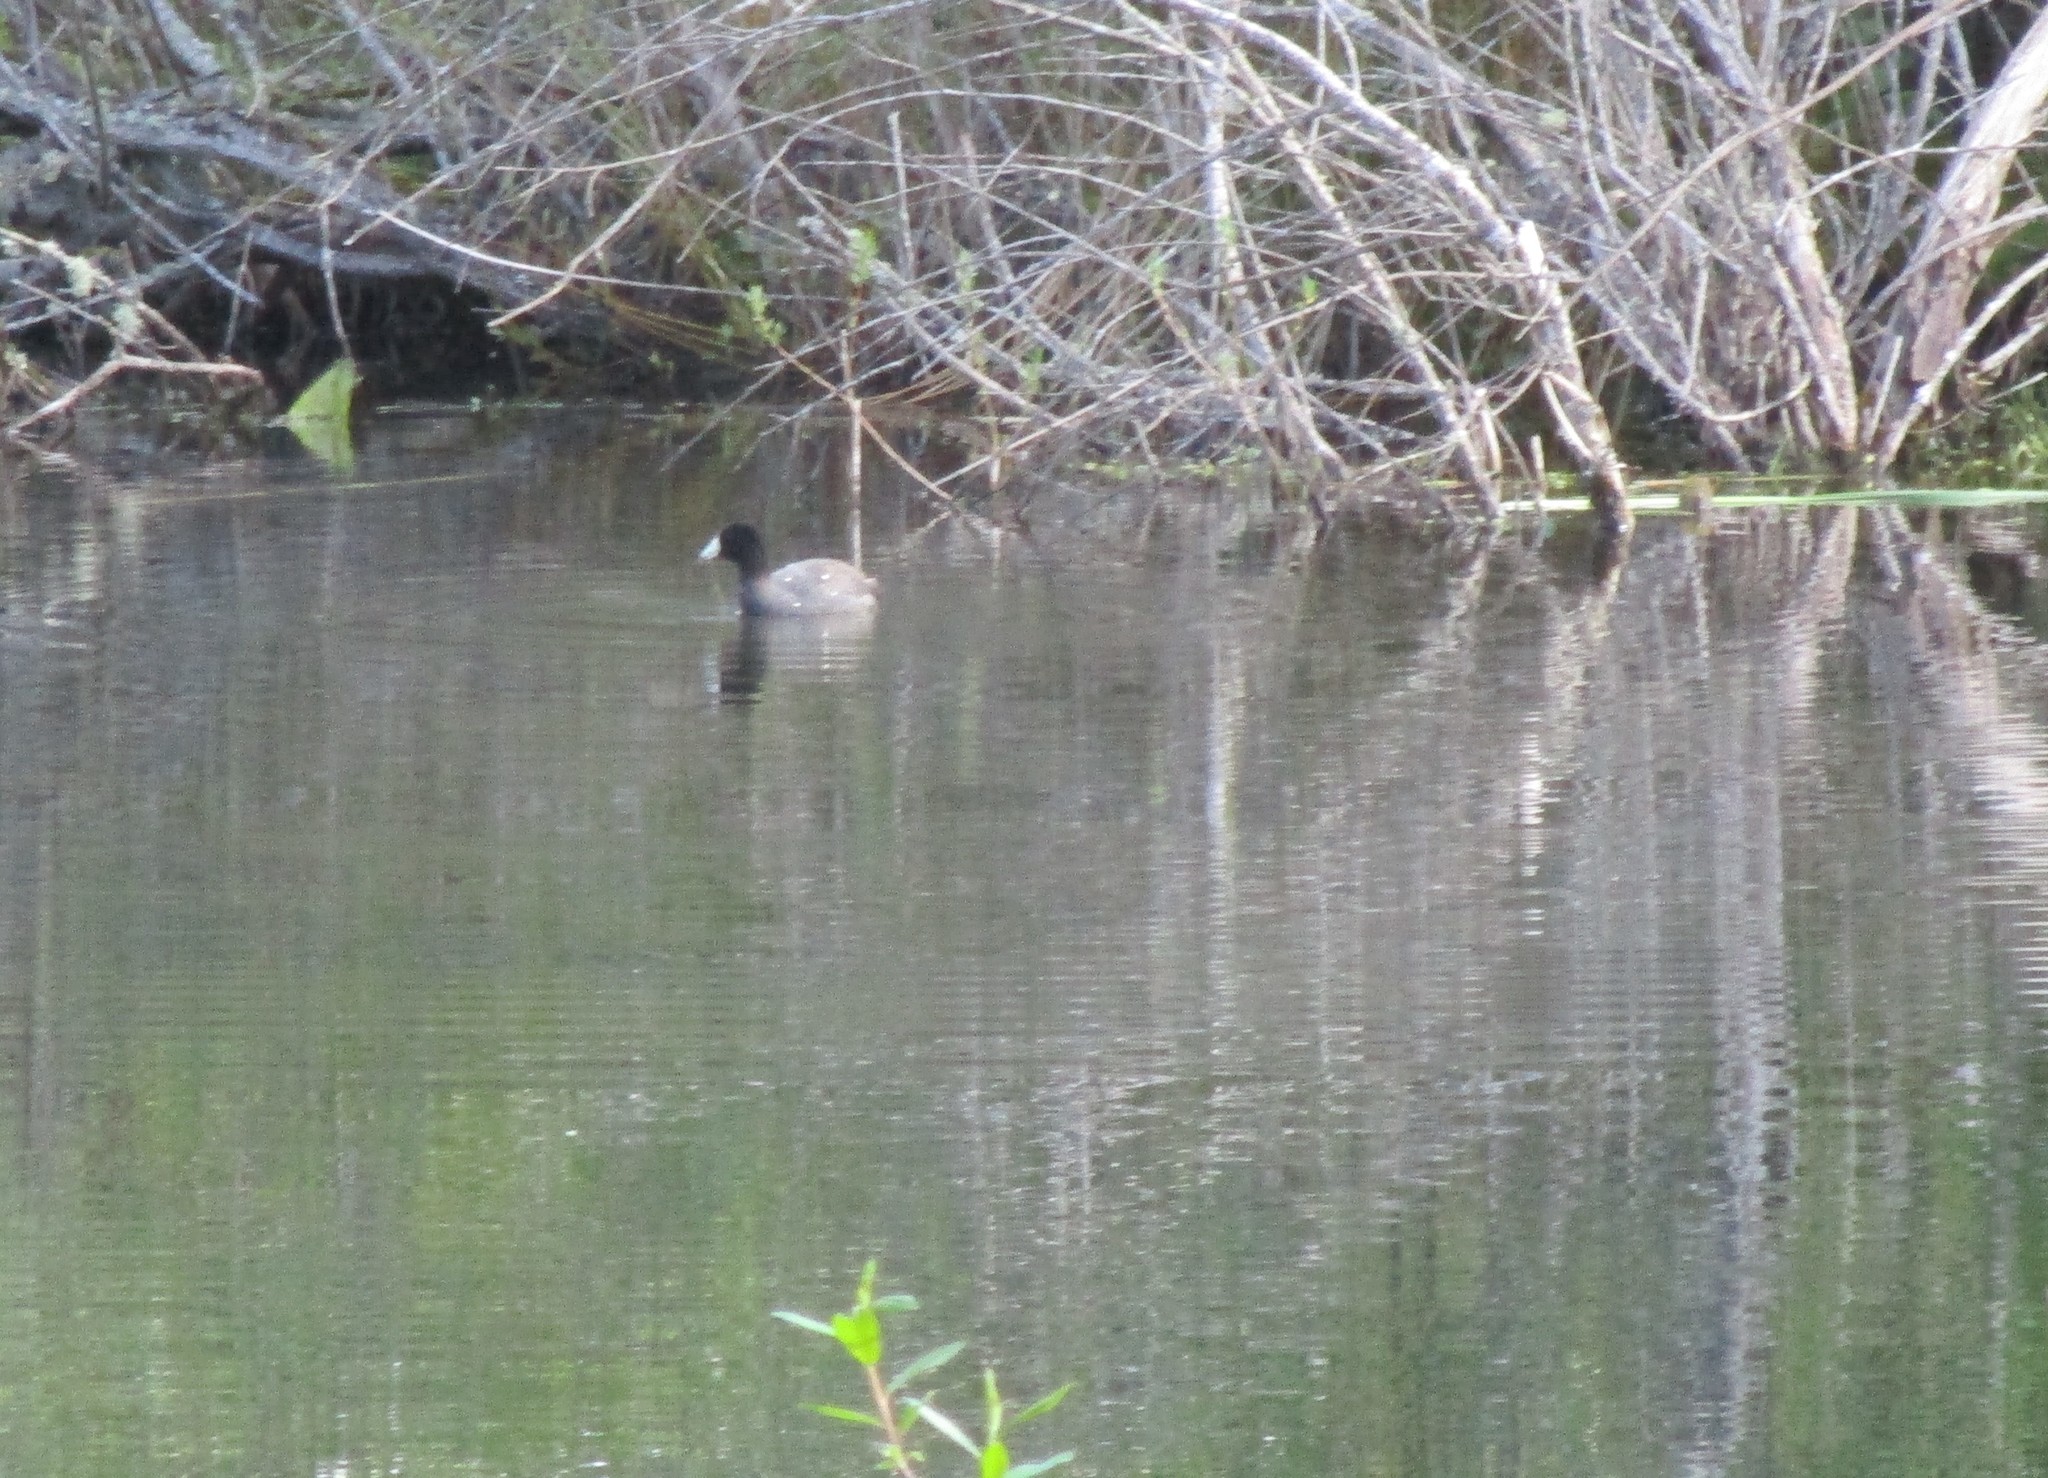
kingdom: Animalia
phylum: Chordata
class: Aves
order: Gruiformes
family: Rallidae
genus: Fulica
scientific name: Fulica americana
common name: American coot
